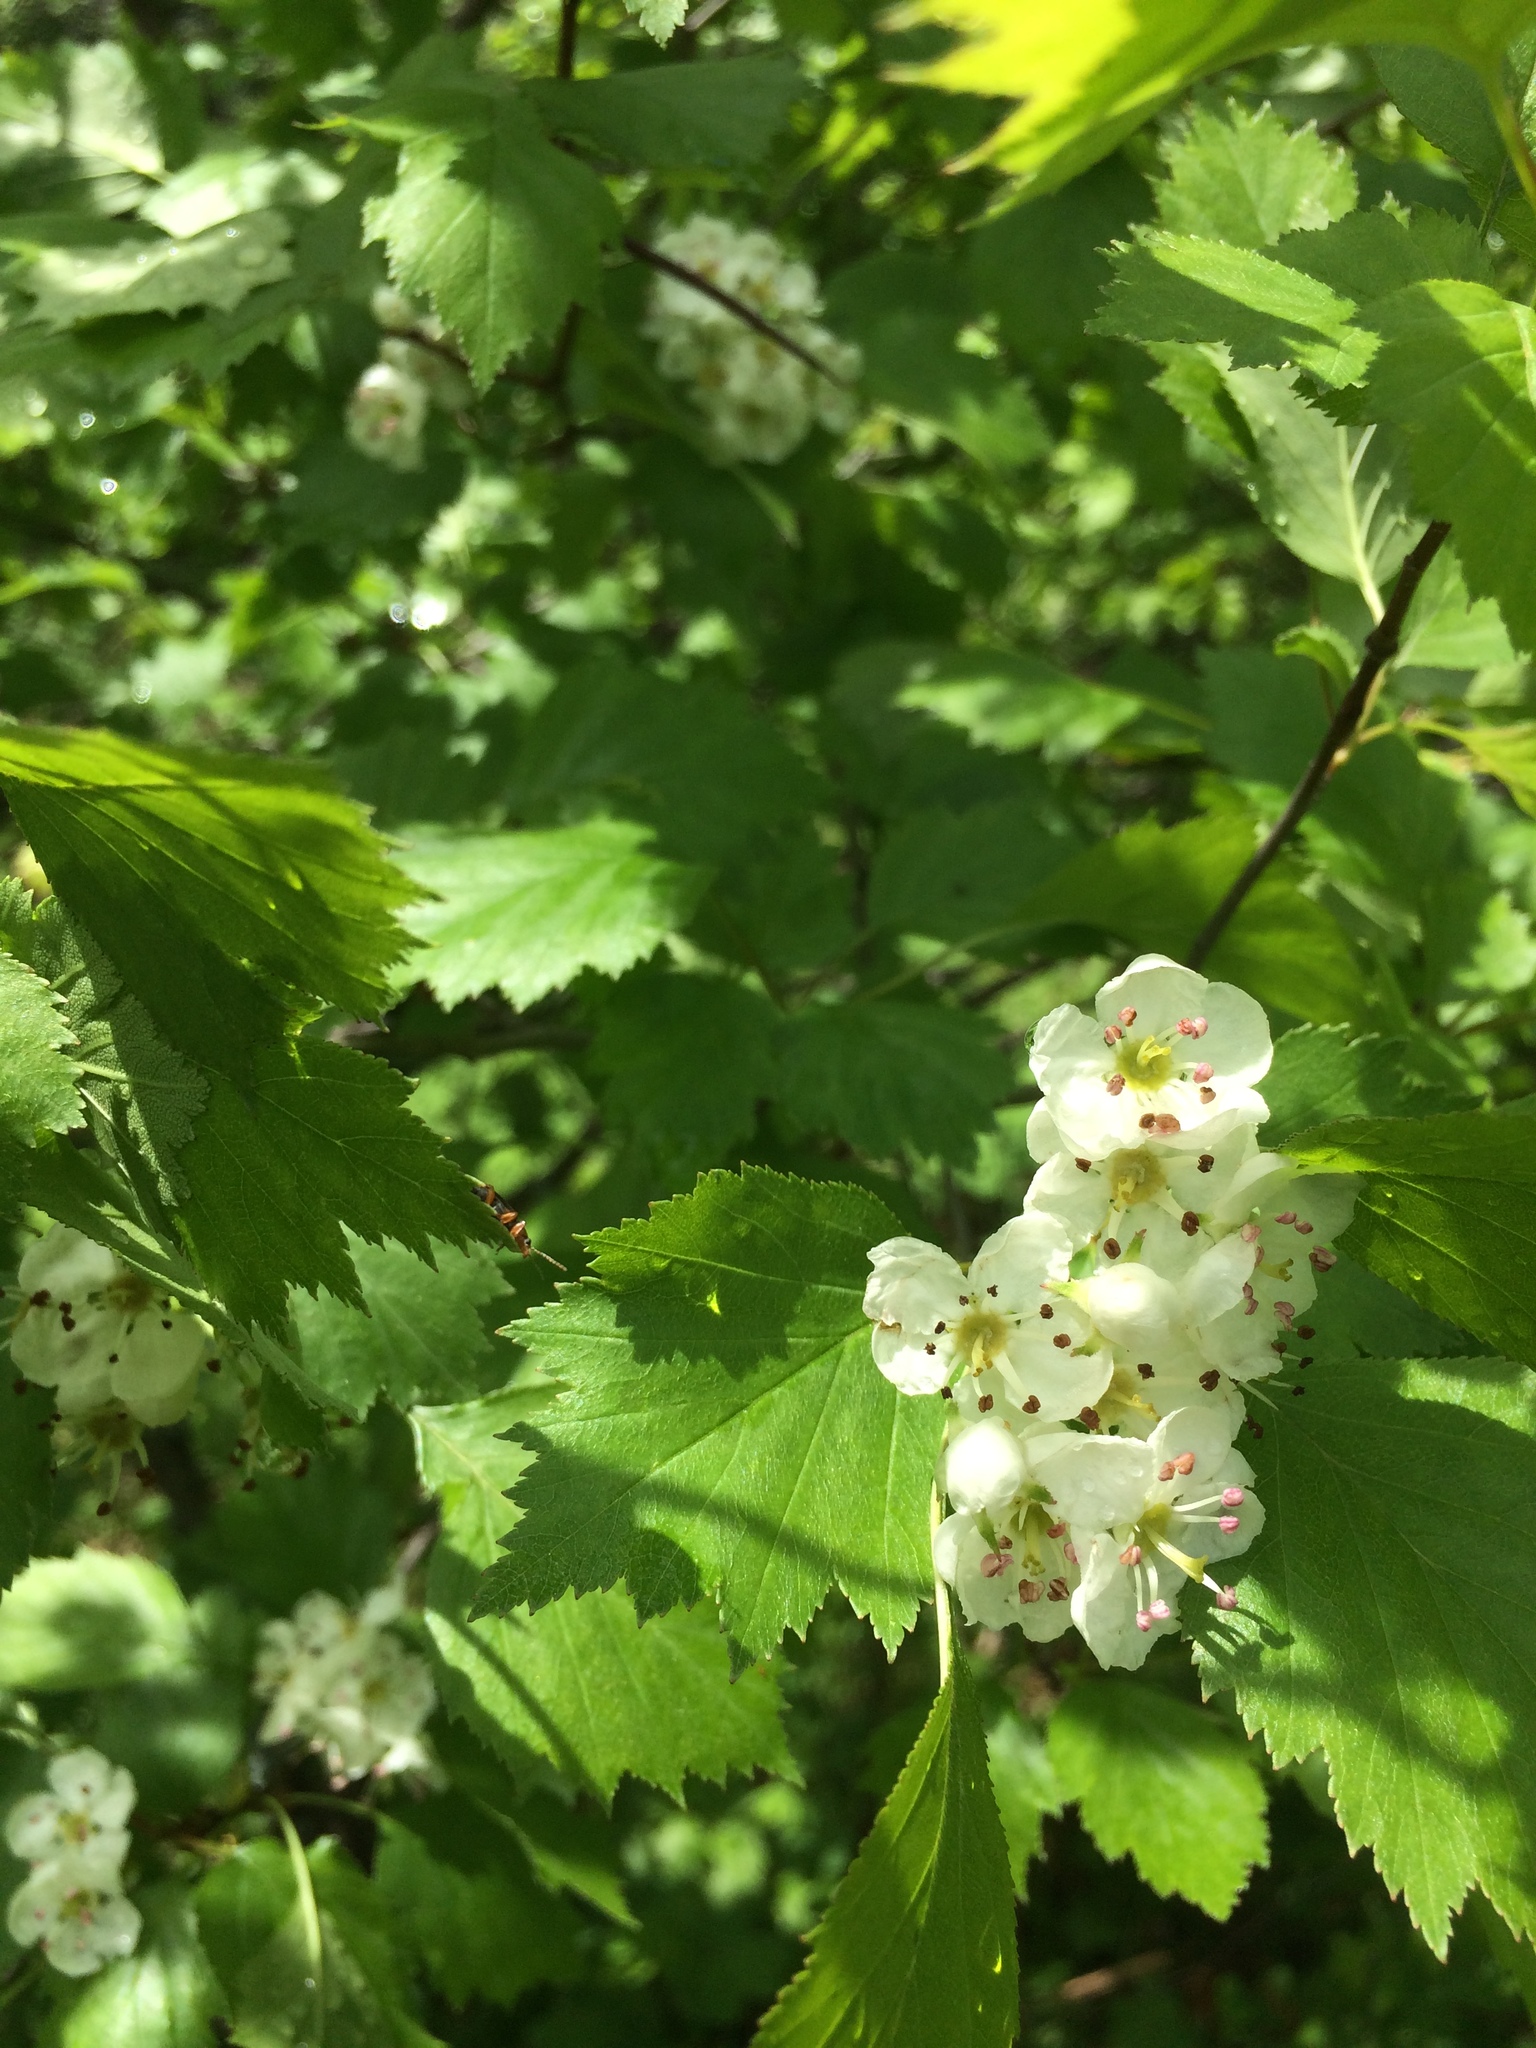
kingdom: Plantae
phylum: Tracheophyta
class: Magnoliopsida
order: Rosales
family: Rosaceae
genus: Crataegus
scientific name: Crataegus fluviatilis
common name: Fort sheridan hawthorn
